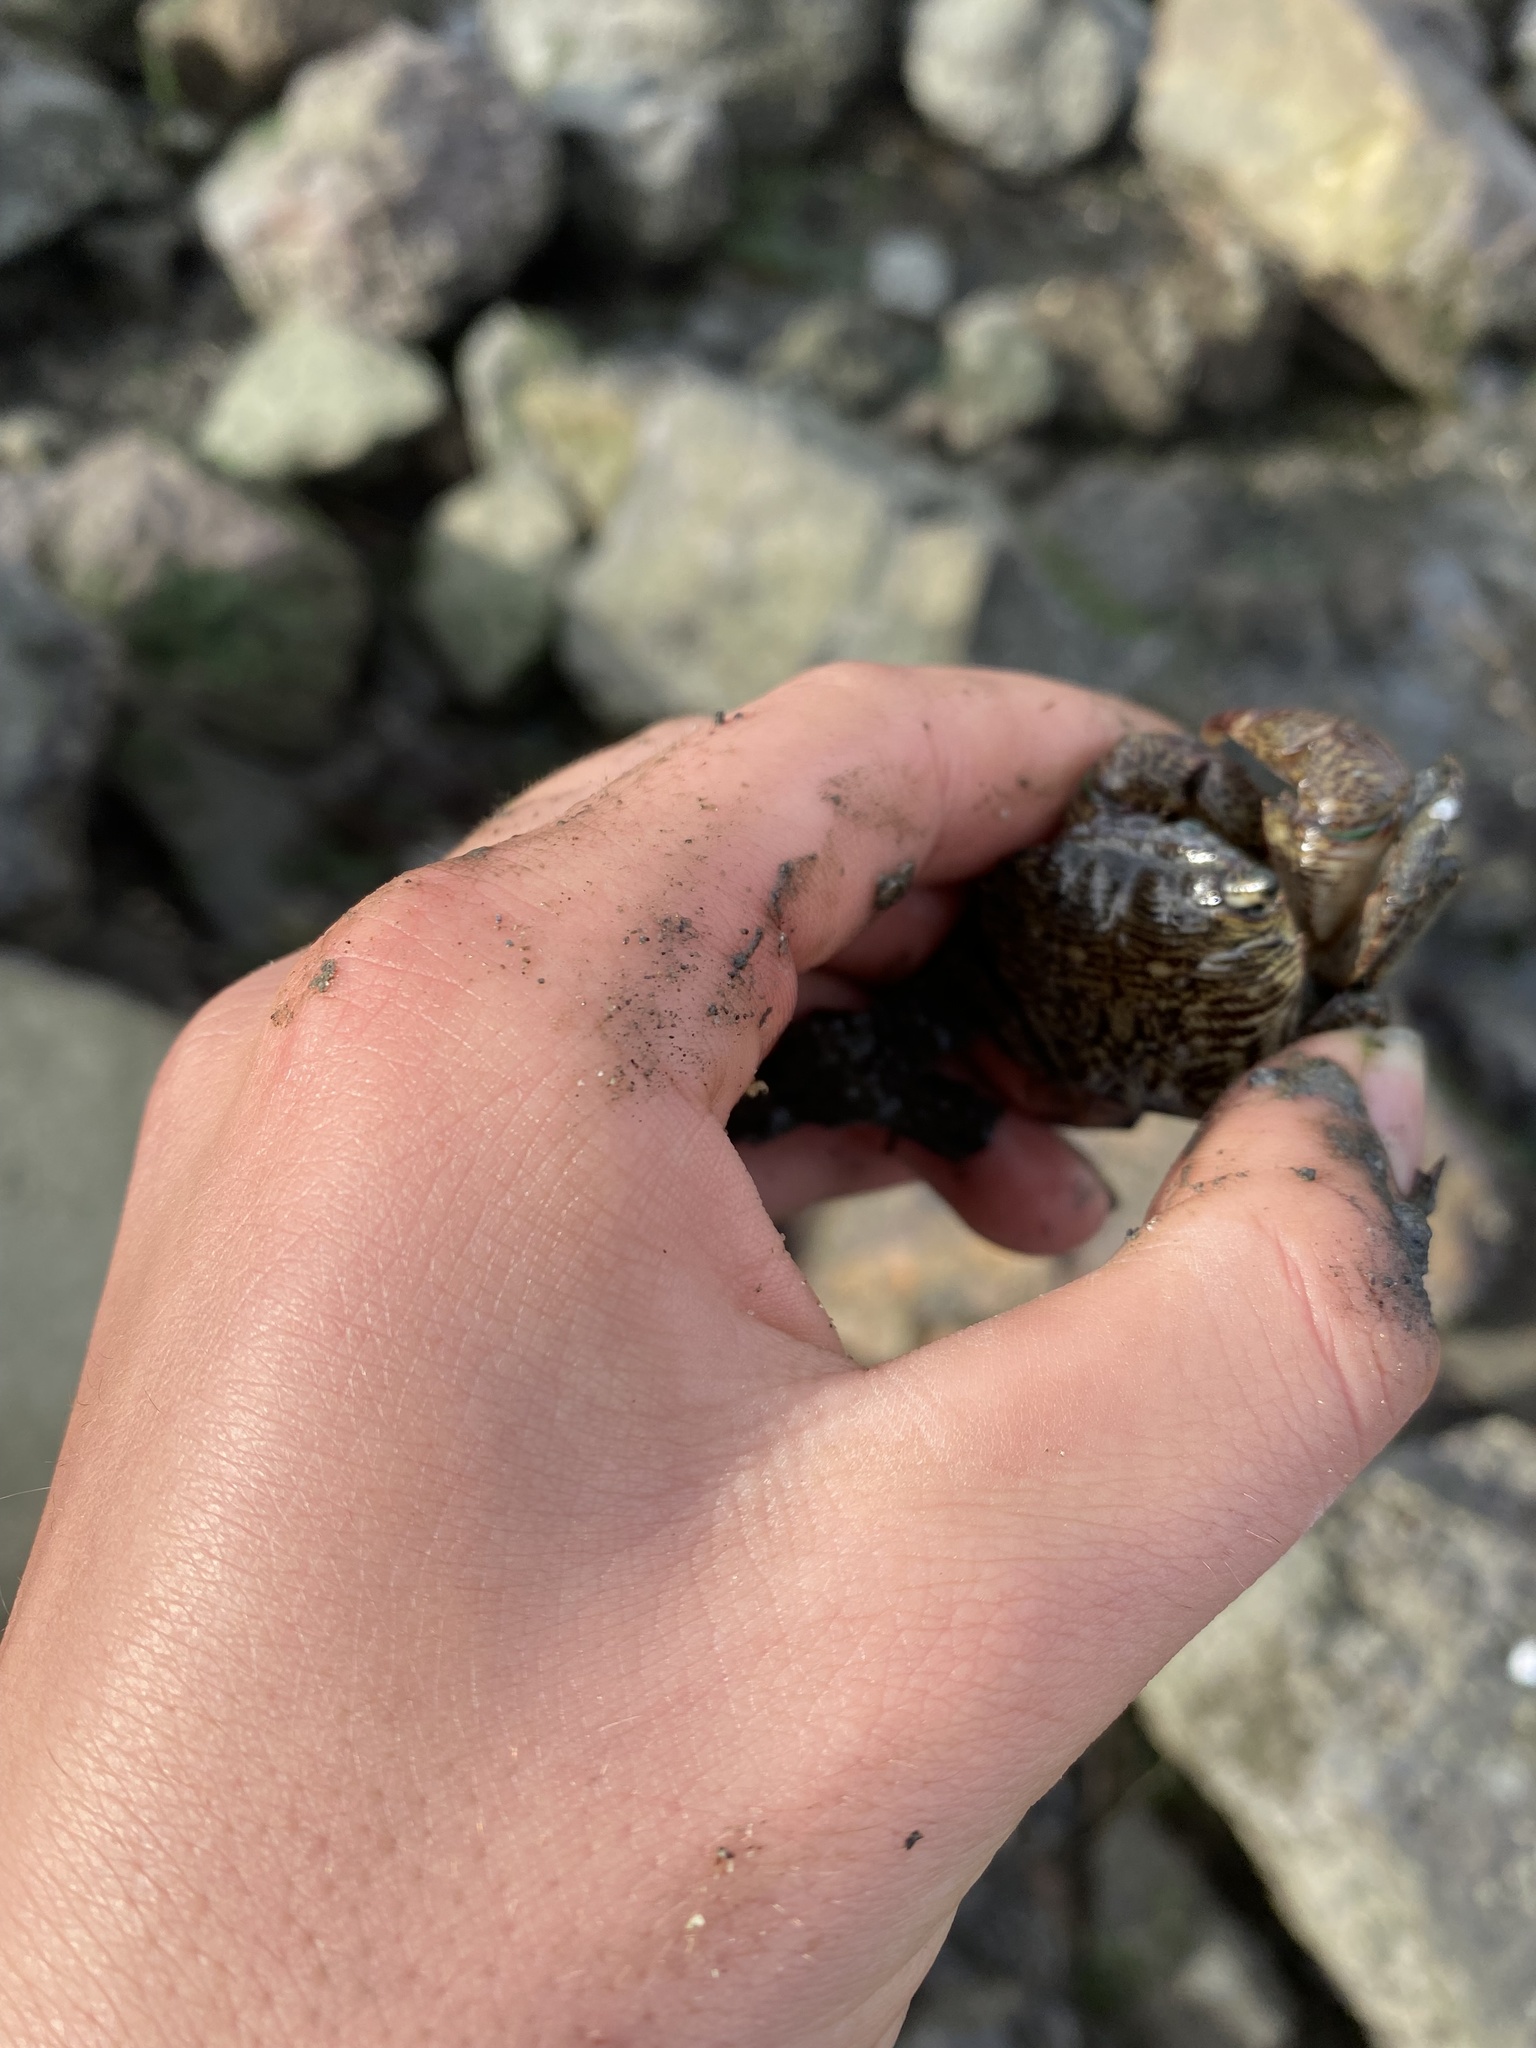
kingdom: Animalia
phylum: Arthropoda
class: Malacostraca
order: Decapoda
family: Grapsidae
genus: Pachygrapsus
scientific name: Pachygrapsus crassipes
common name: Striped shore crab
